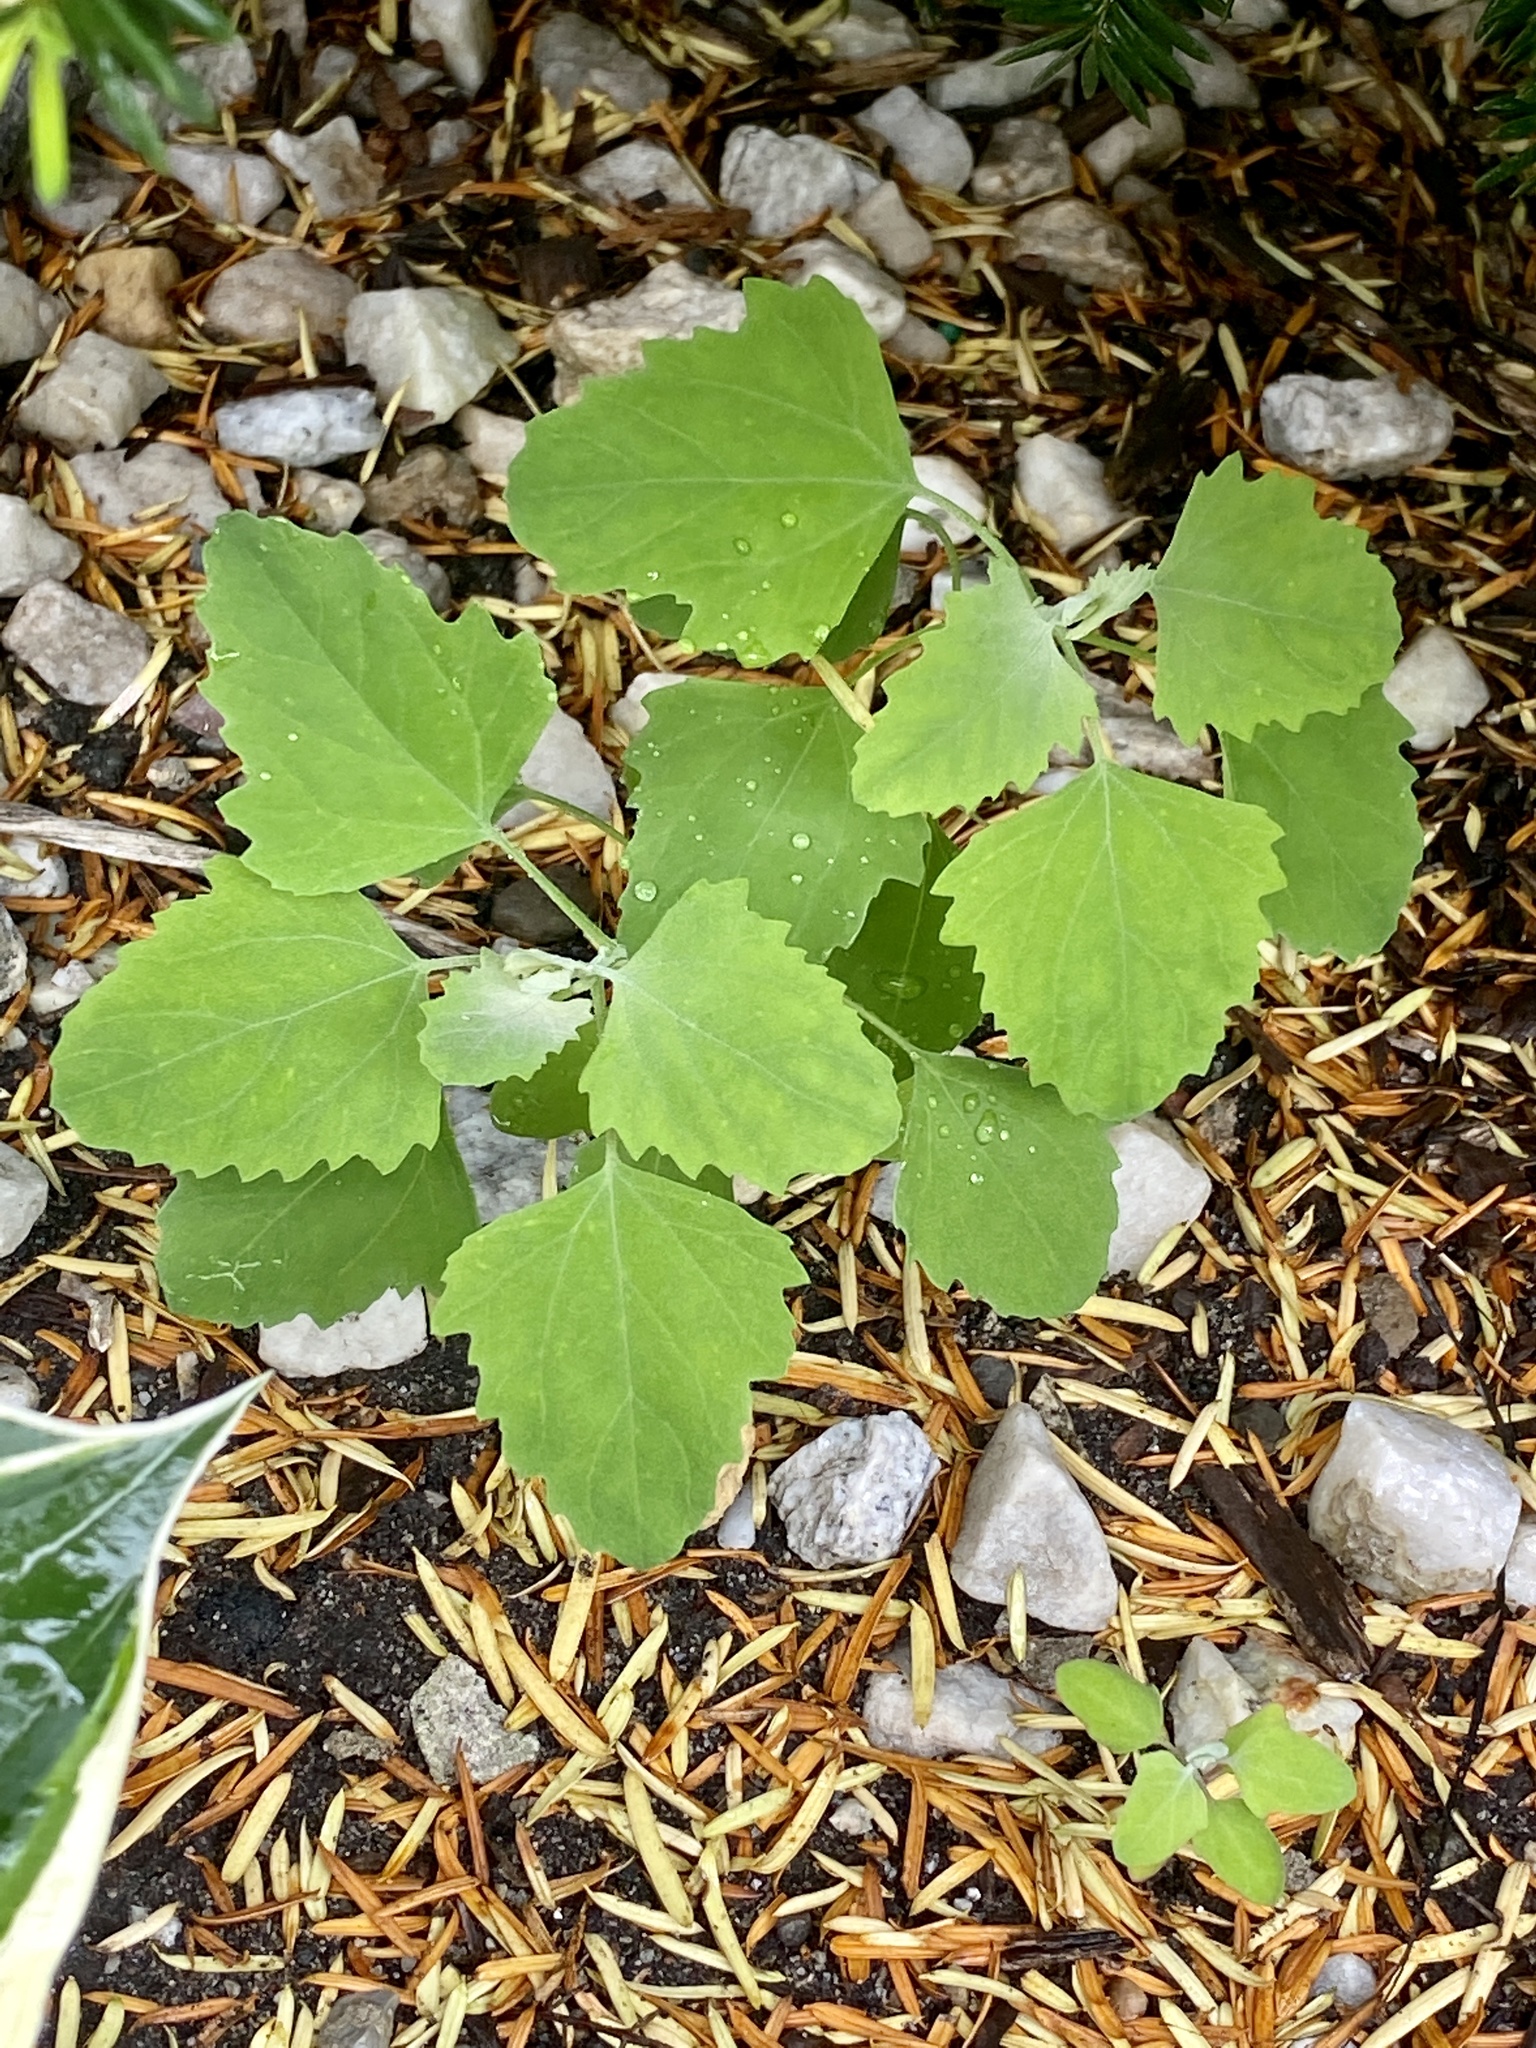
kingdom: Plantae
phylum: Tracheophyta
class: Magnoliopsida
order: Caryophyllales
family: Amaranthaceae
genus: Chenopodium
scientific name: Chenopodium album
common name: Fat-hen
